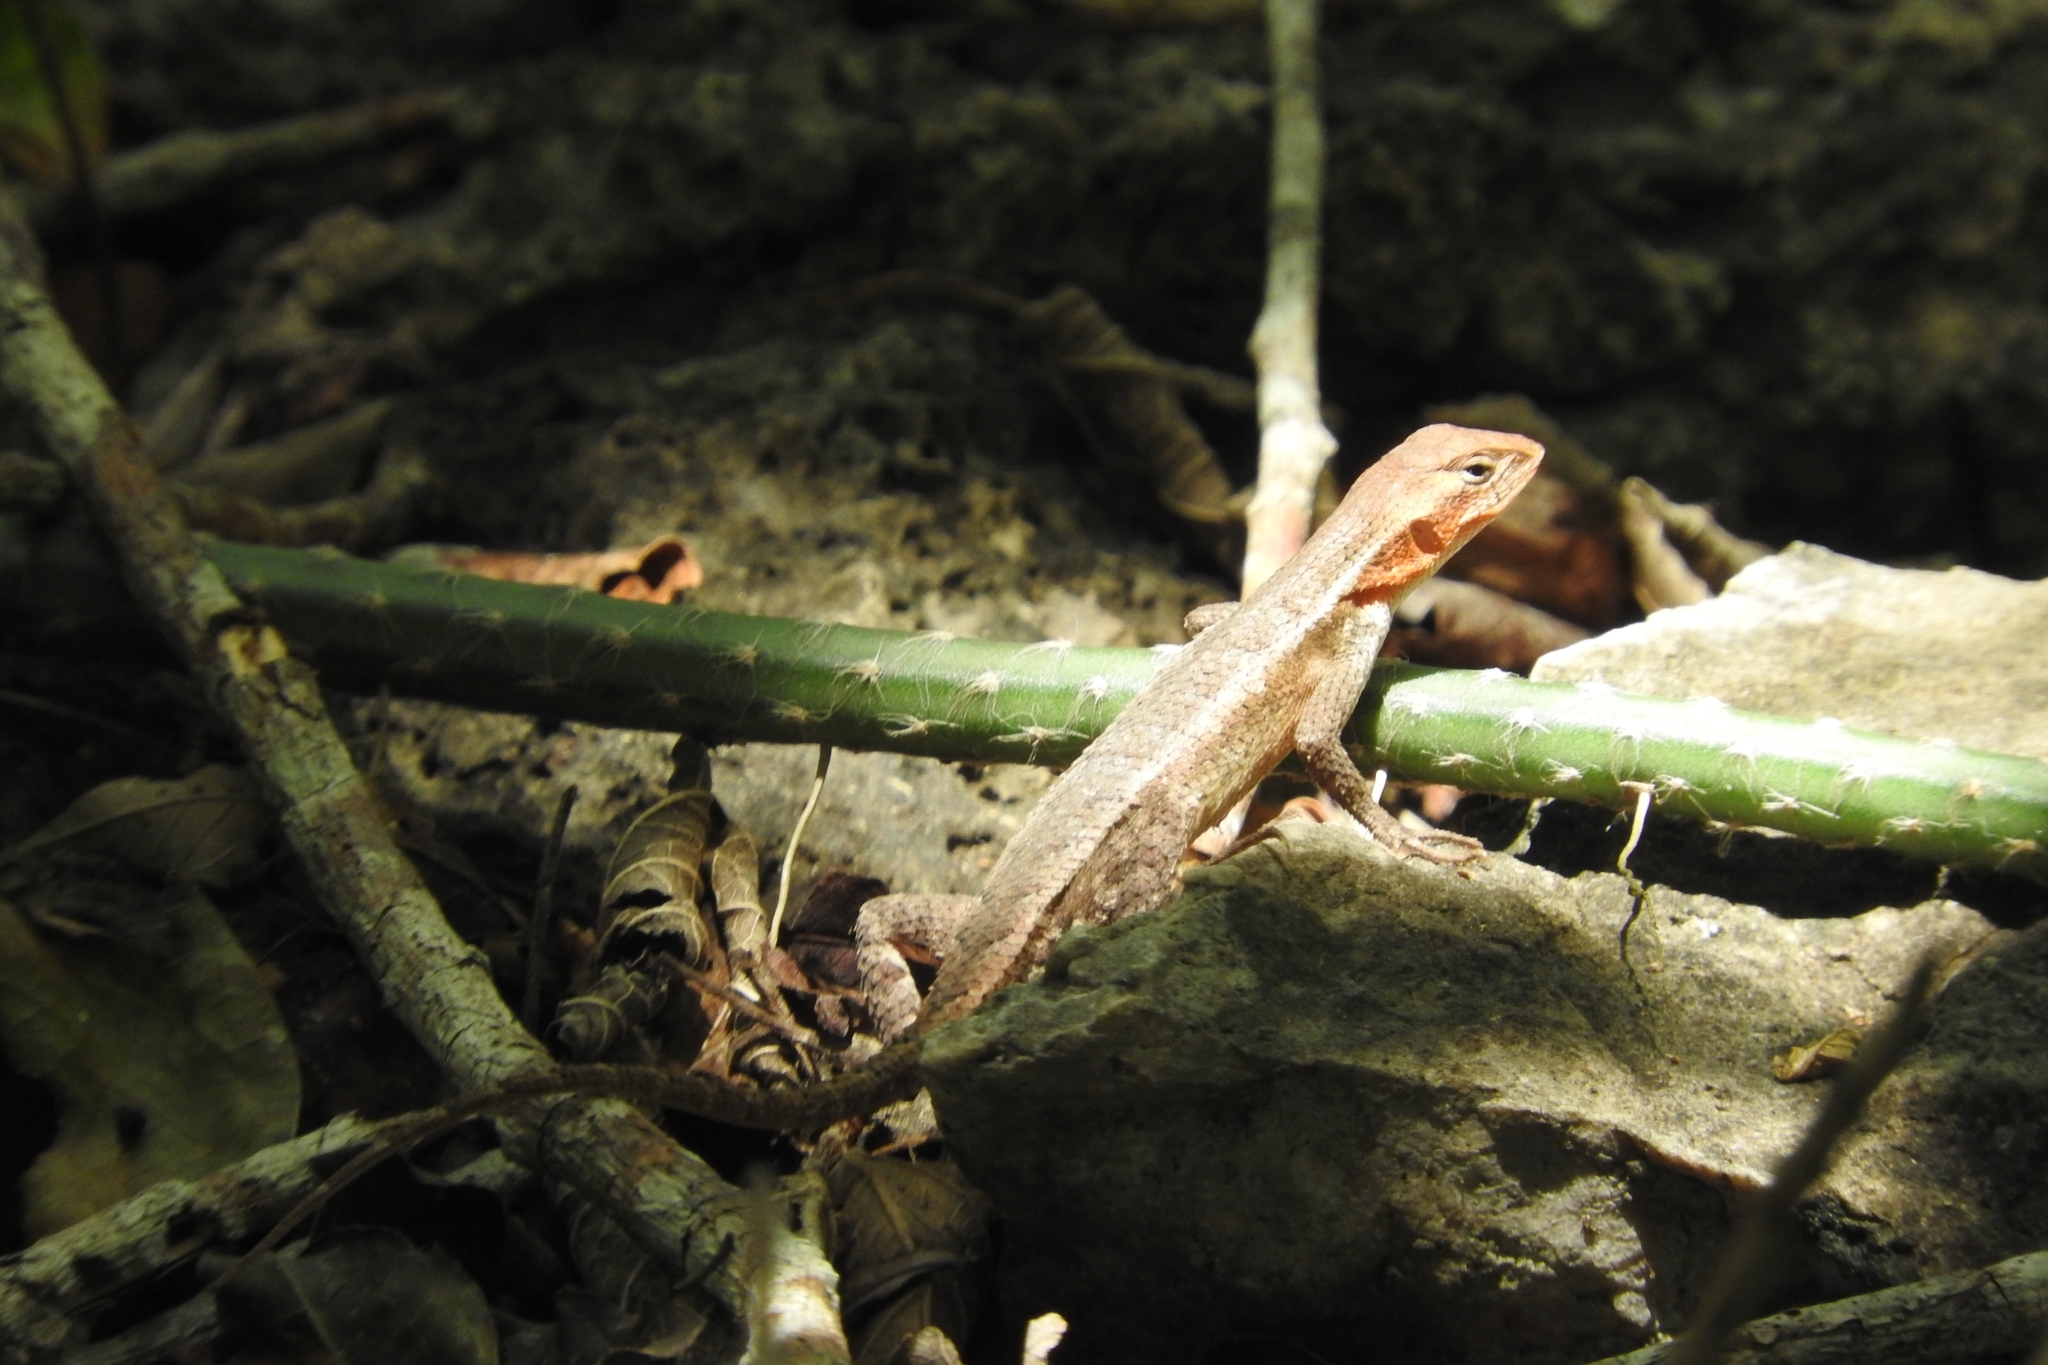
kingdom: Animalia
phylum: Chordata
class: Squamata
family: Phrynosomatidae
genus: Sceloporus
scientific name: Sceloporus chrysostictus
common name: Yellow-spotted spiny lizard
